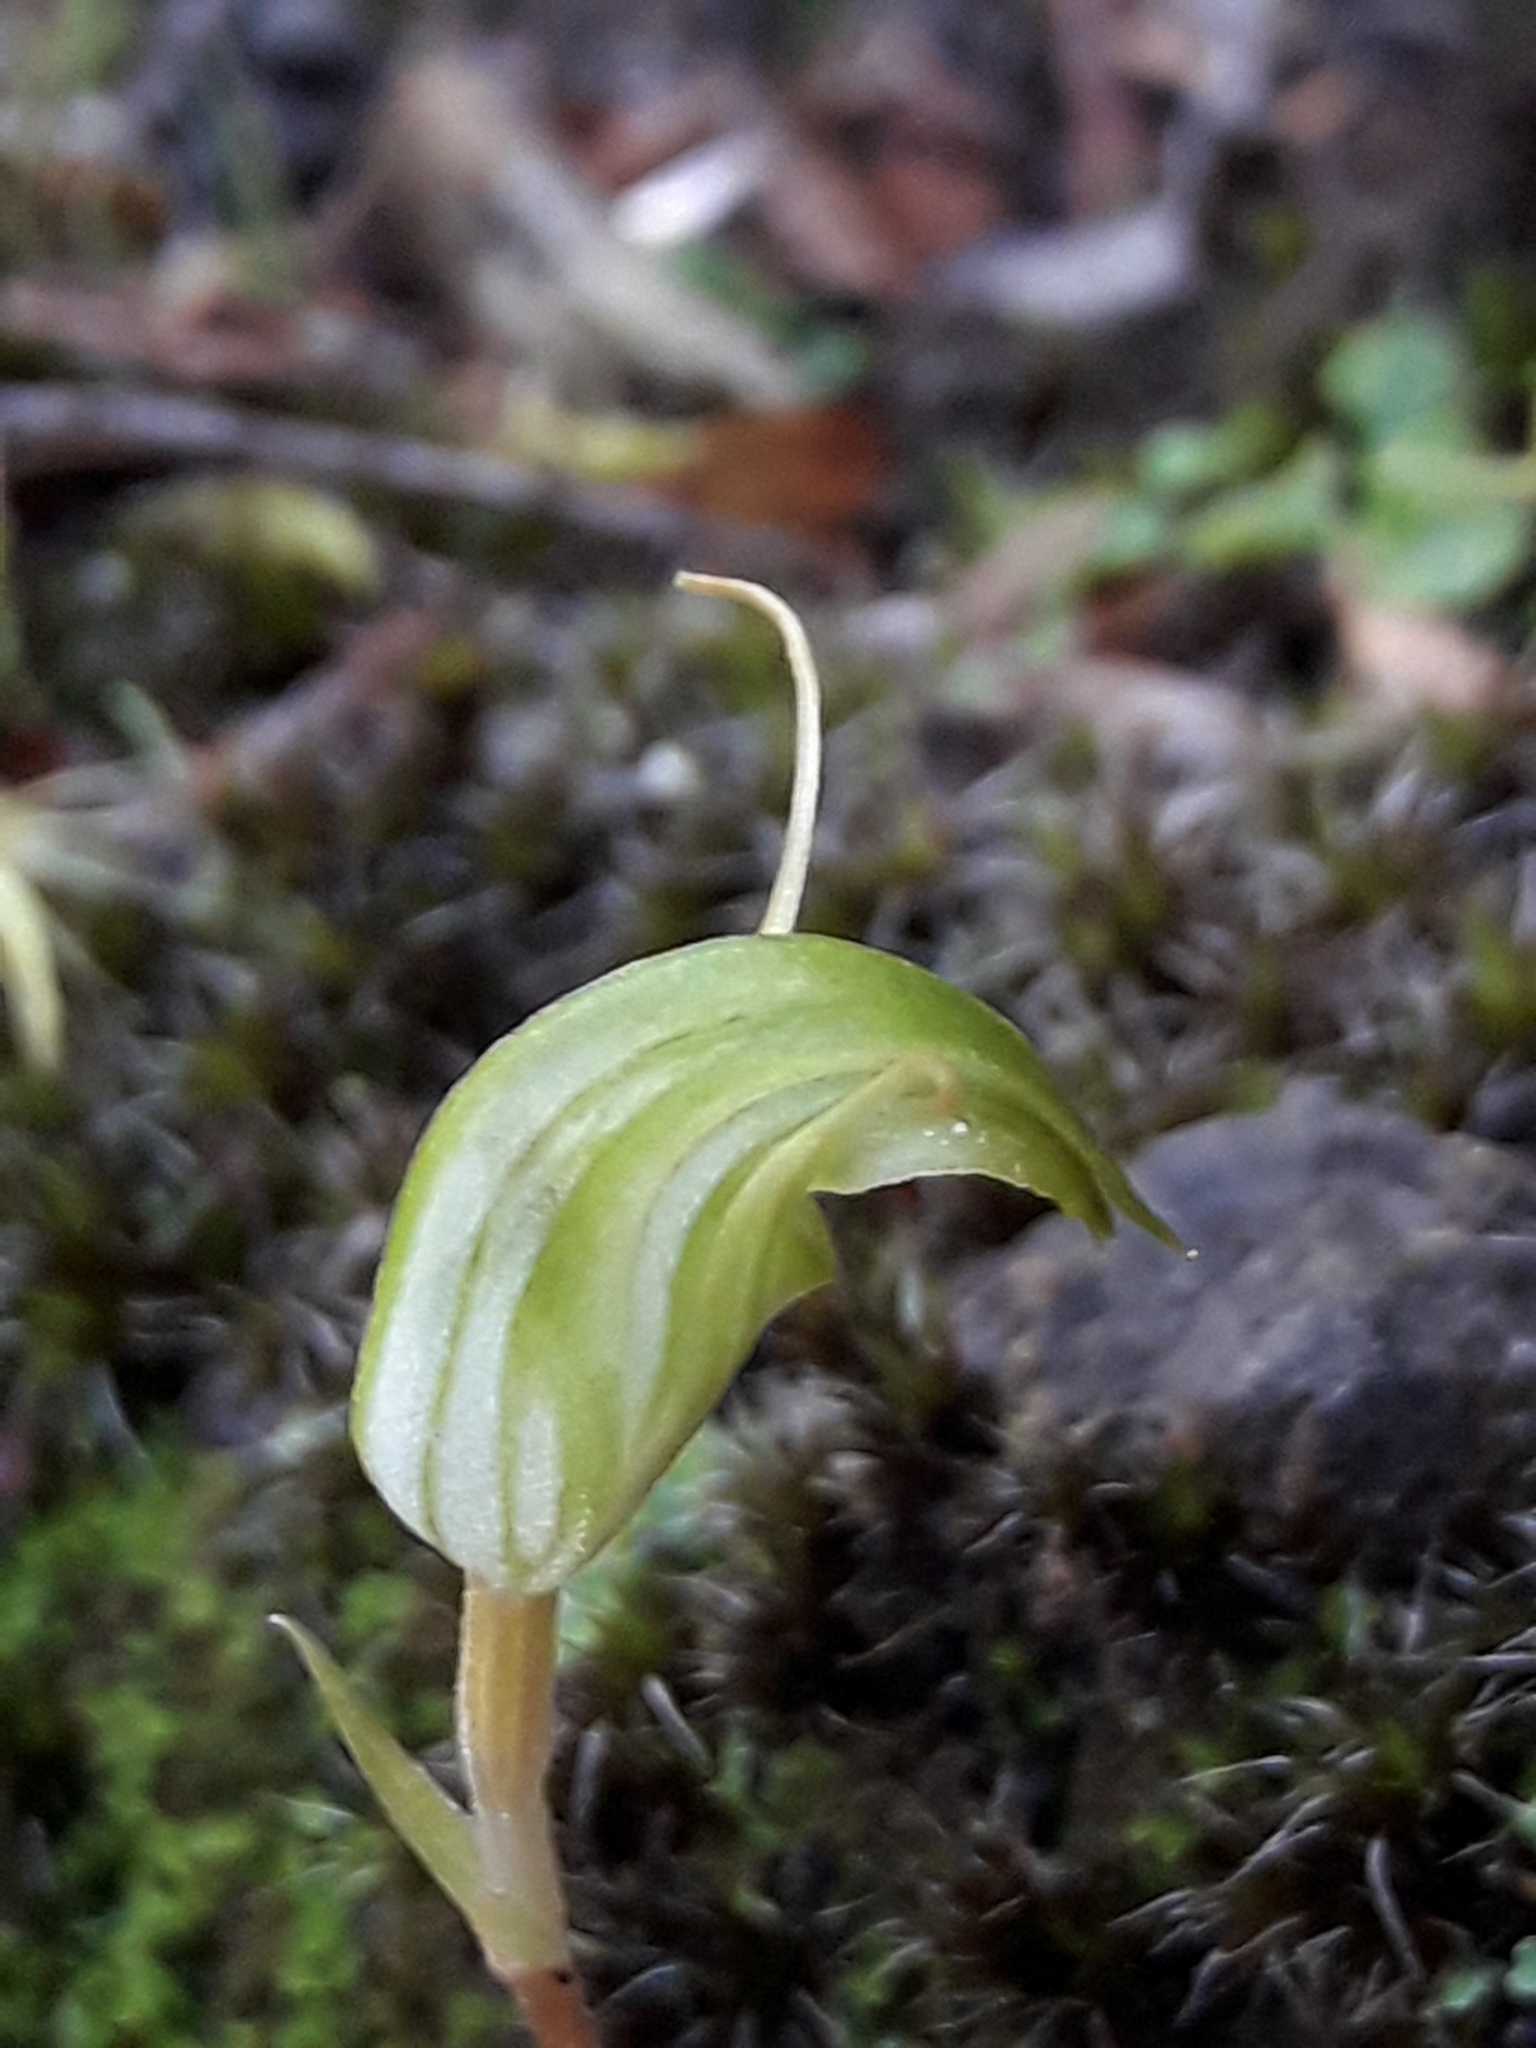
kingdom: Plantae
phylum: Tracheophyta
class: Liliopsida
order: Asparagales
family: Orchidaceae
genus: Pterostylis
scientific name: Pterostylis trullifolia
